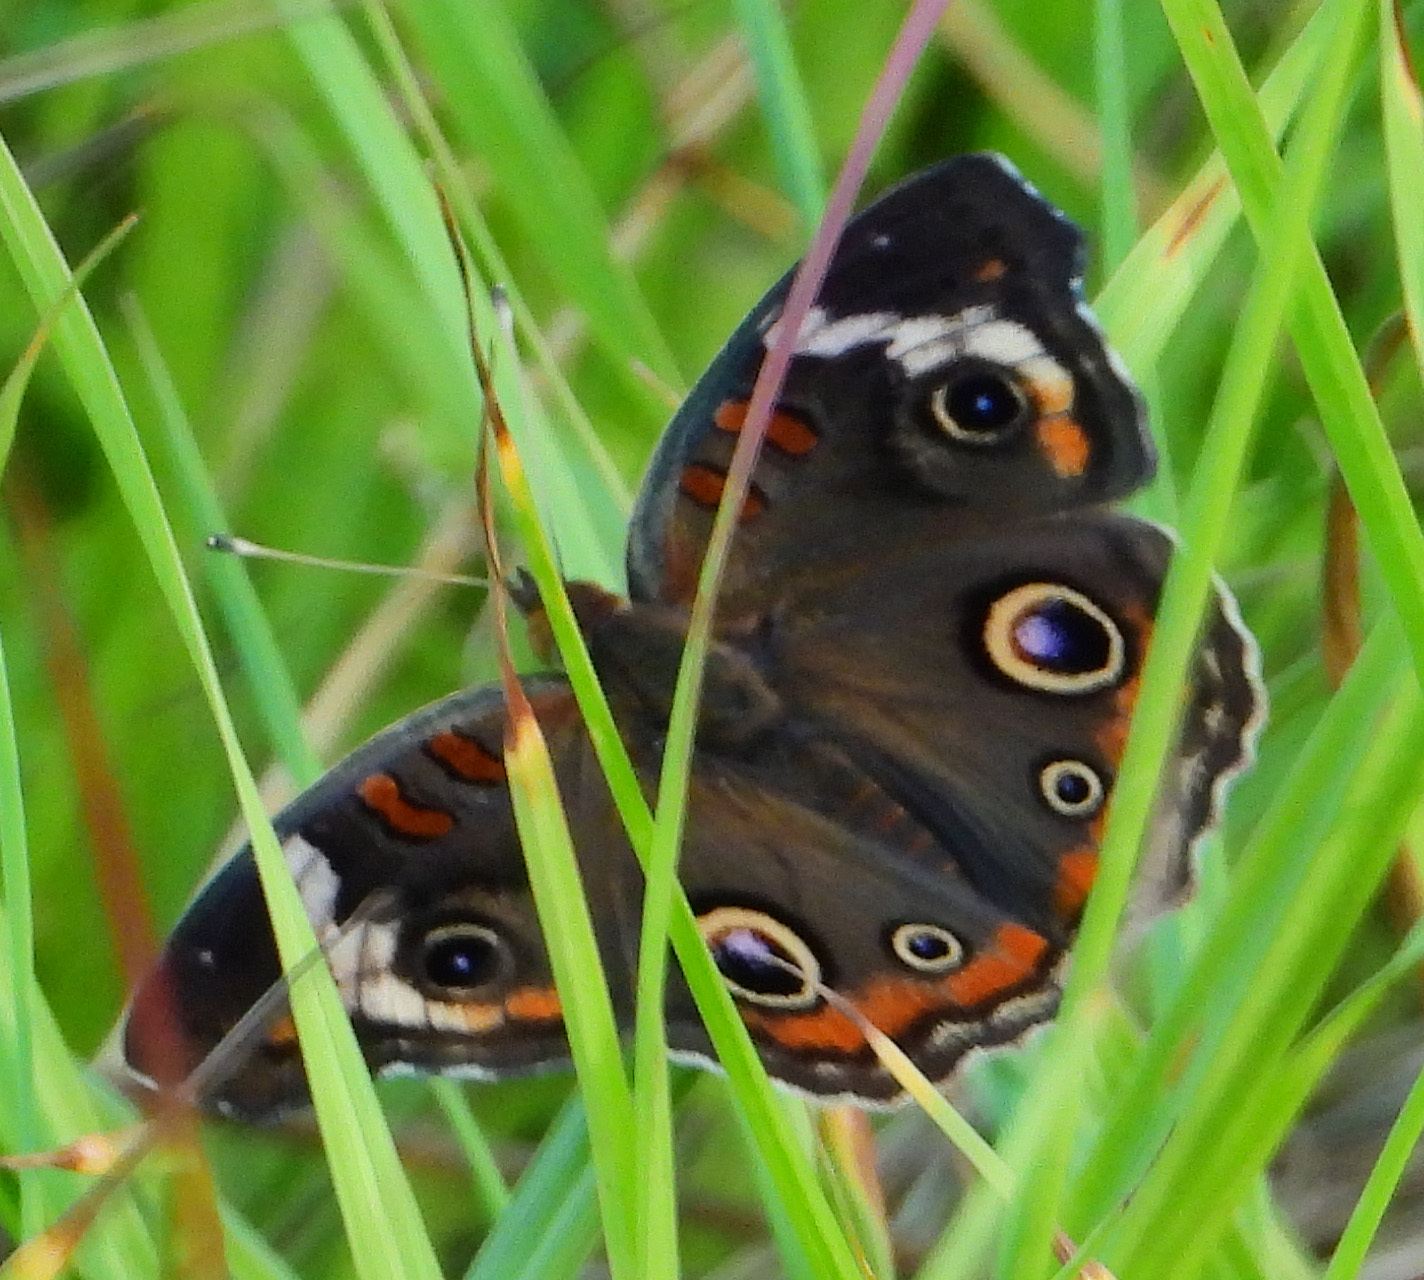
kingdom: Animalia
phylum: Arthropoda
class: Insecta
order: Lepidoptera
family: Nymphalidae
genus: Junonia
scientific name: Junonia coenia
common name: Common buckeye
